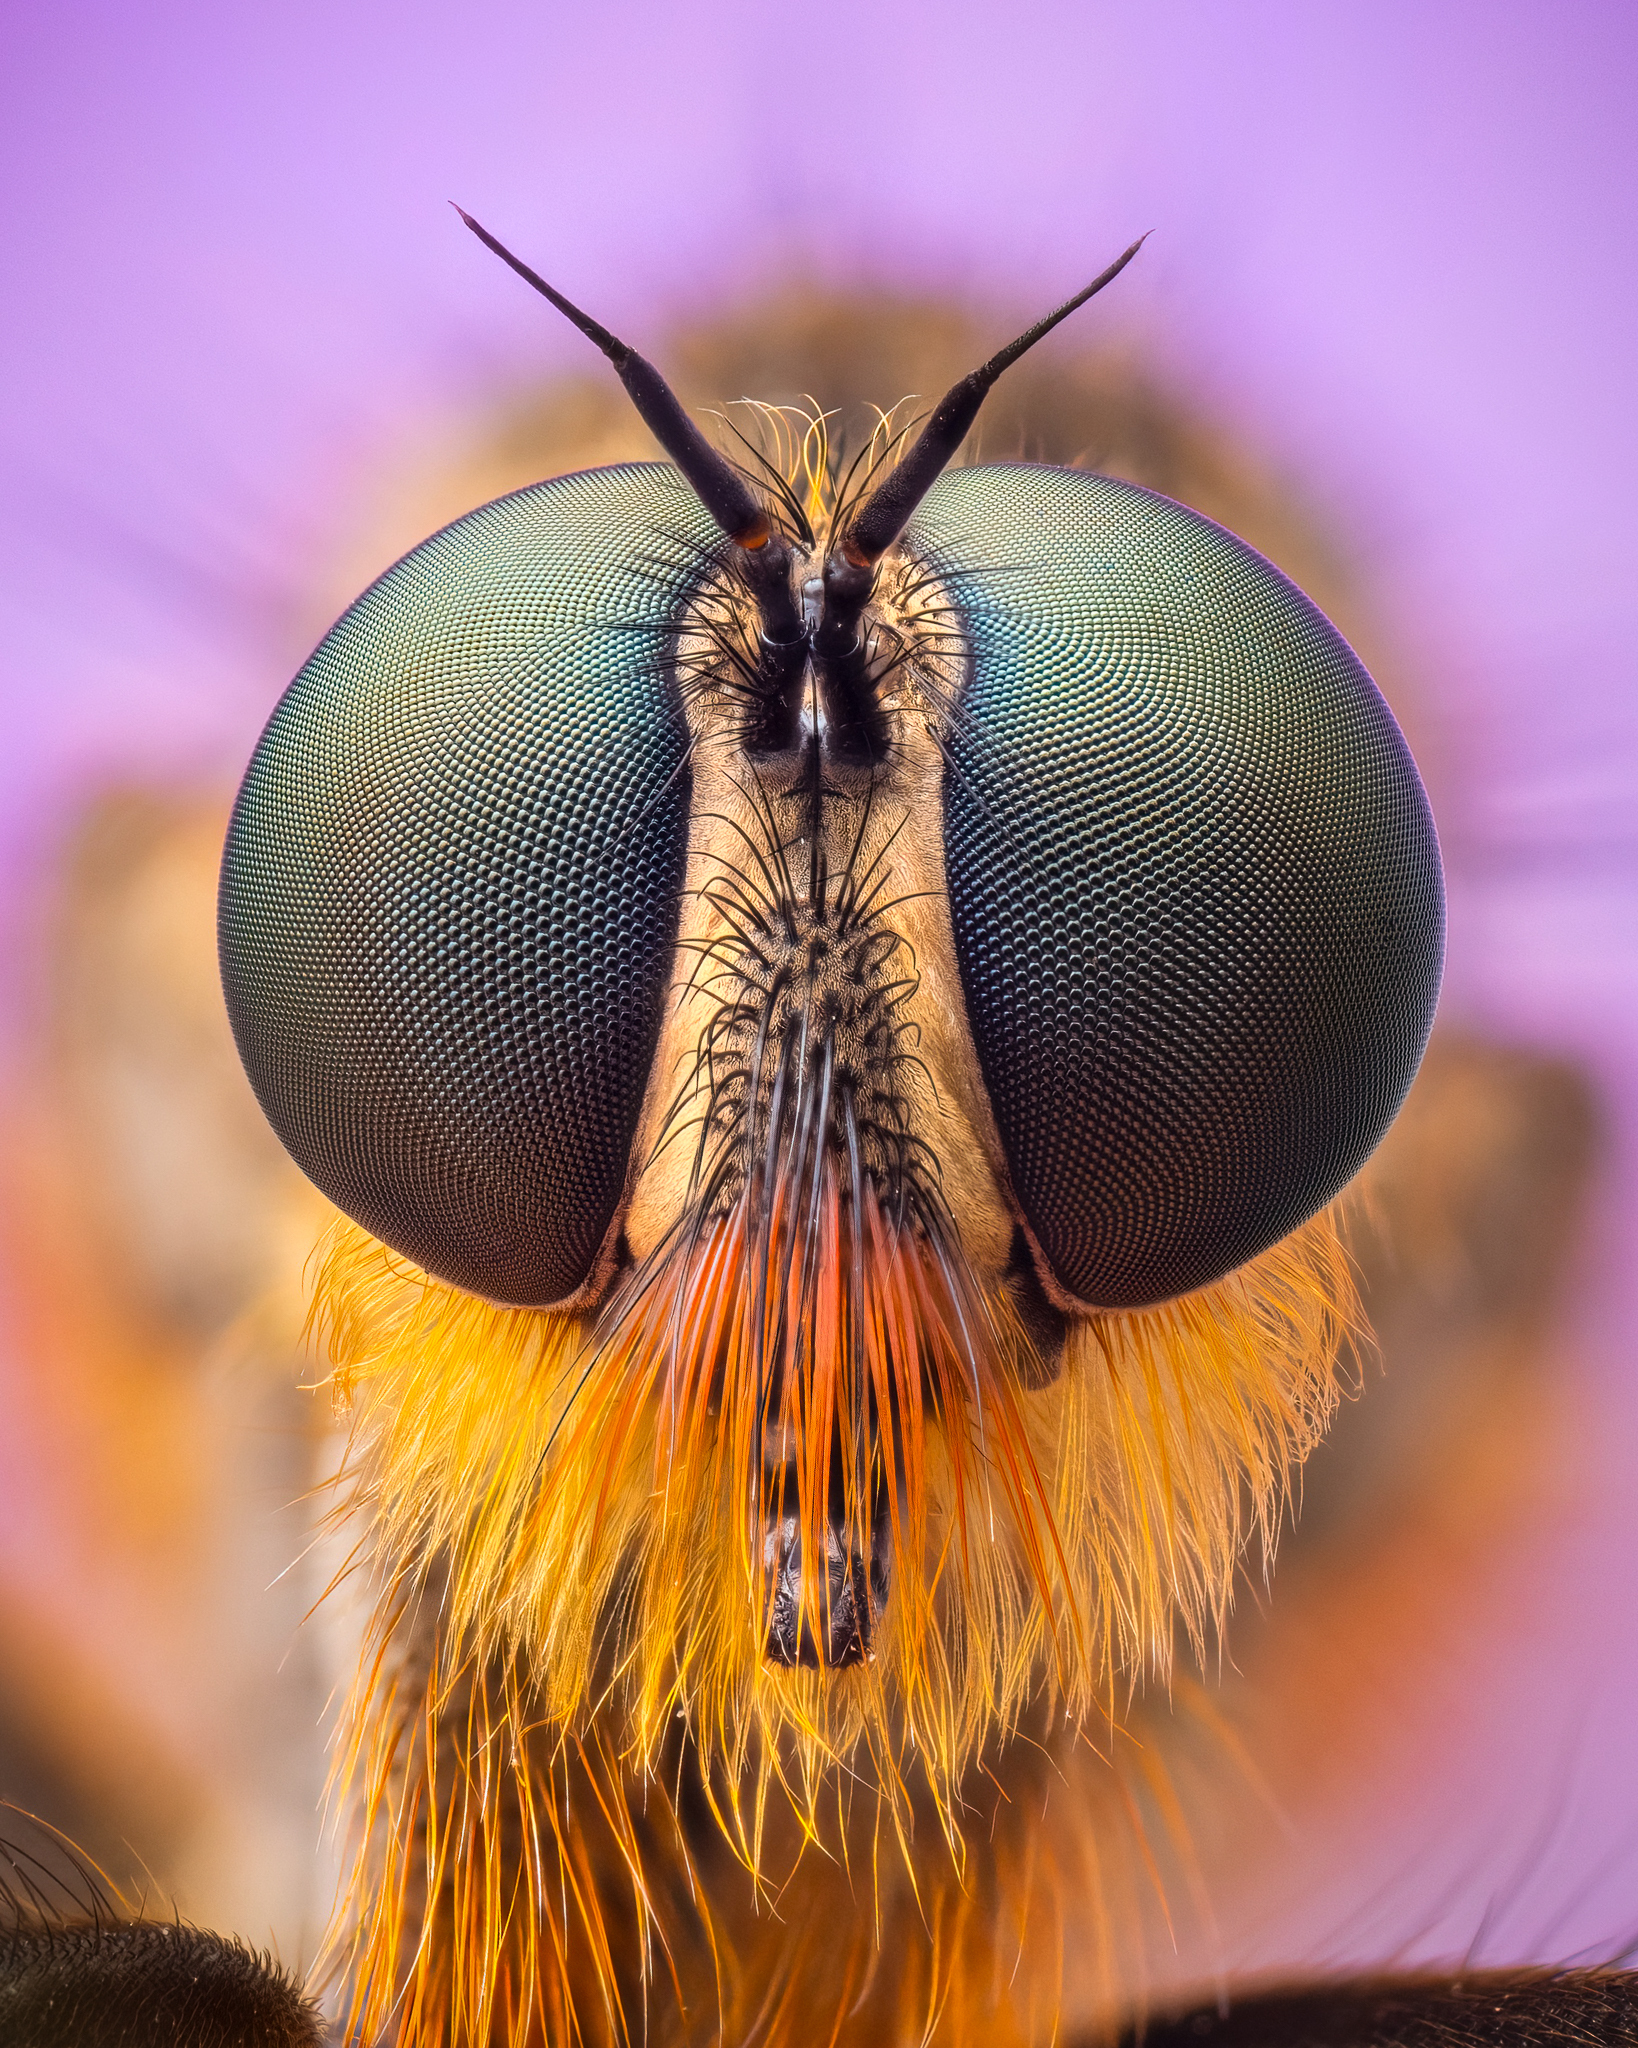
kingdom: Animalia
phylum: Arthropoda
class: Insecta
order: Diptera
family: Asilidae
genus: Eutolmus
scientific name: Eutolmus rufibarbis
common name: Golden-tabbed robberfly
